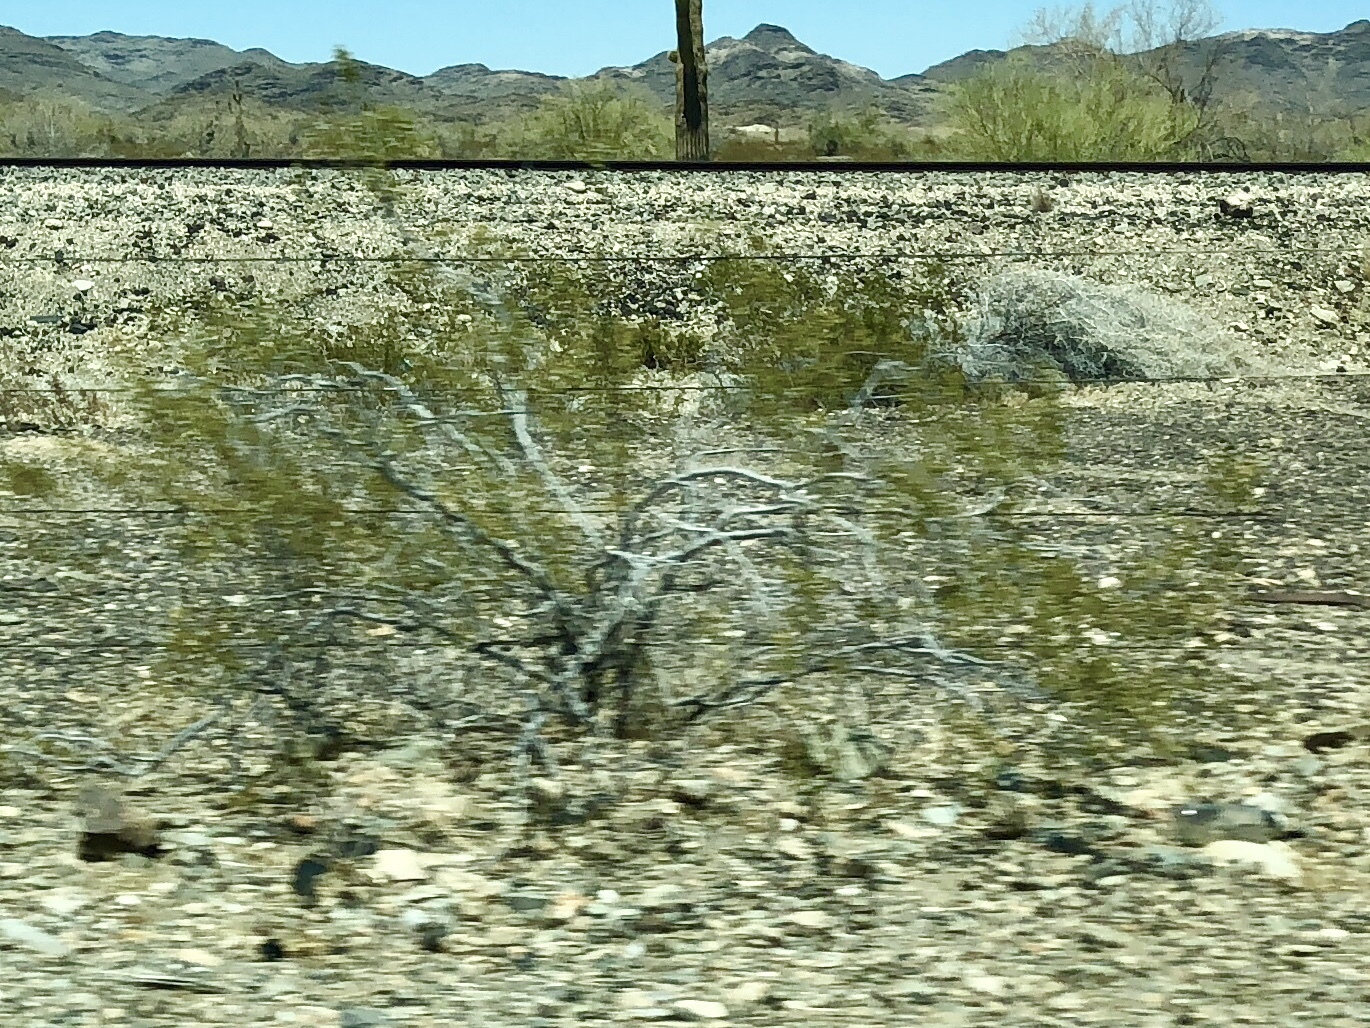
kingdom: Plantae
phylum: Tracheophyta
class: Magnoliopsida
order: Zygophyllales
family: Zygophyllaceae
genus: Larrea
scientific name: Larrea tridentata
